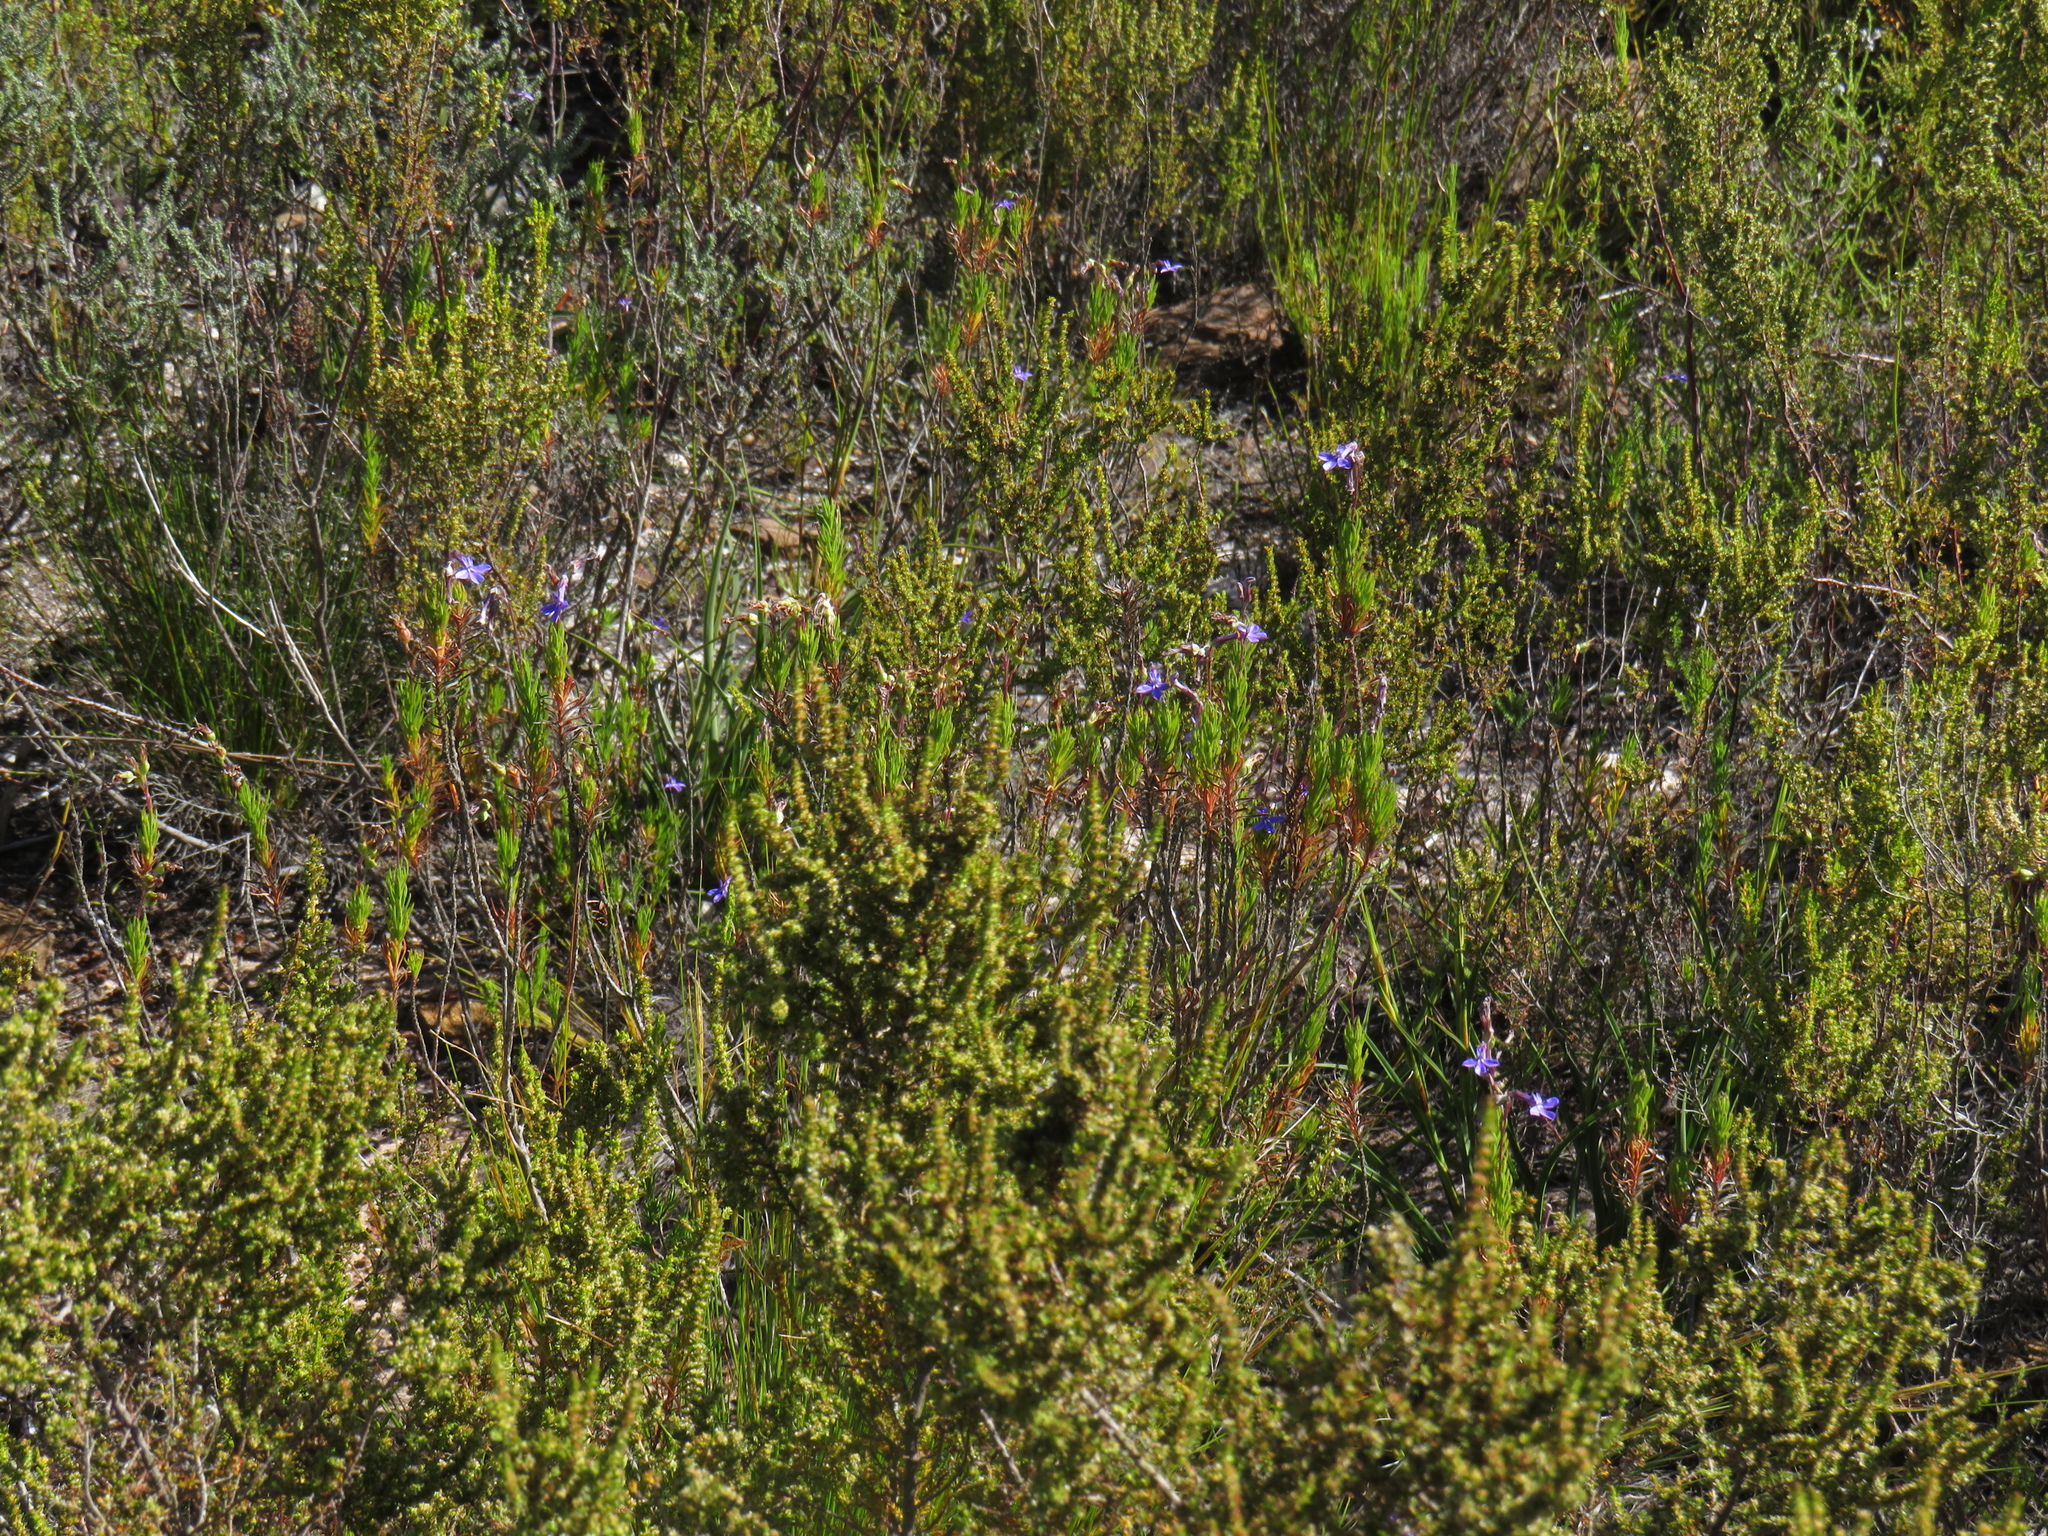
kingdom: Plantae
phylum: Tracheophyta
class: Magnoliopsida
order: Asterales
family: Campanulaceae
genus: Lobelia
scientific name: Lobelia pinifolia
